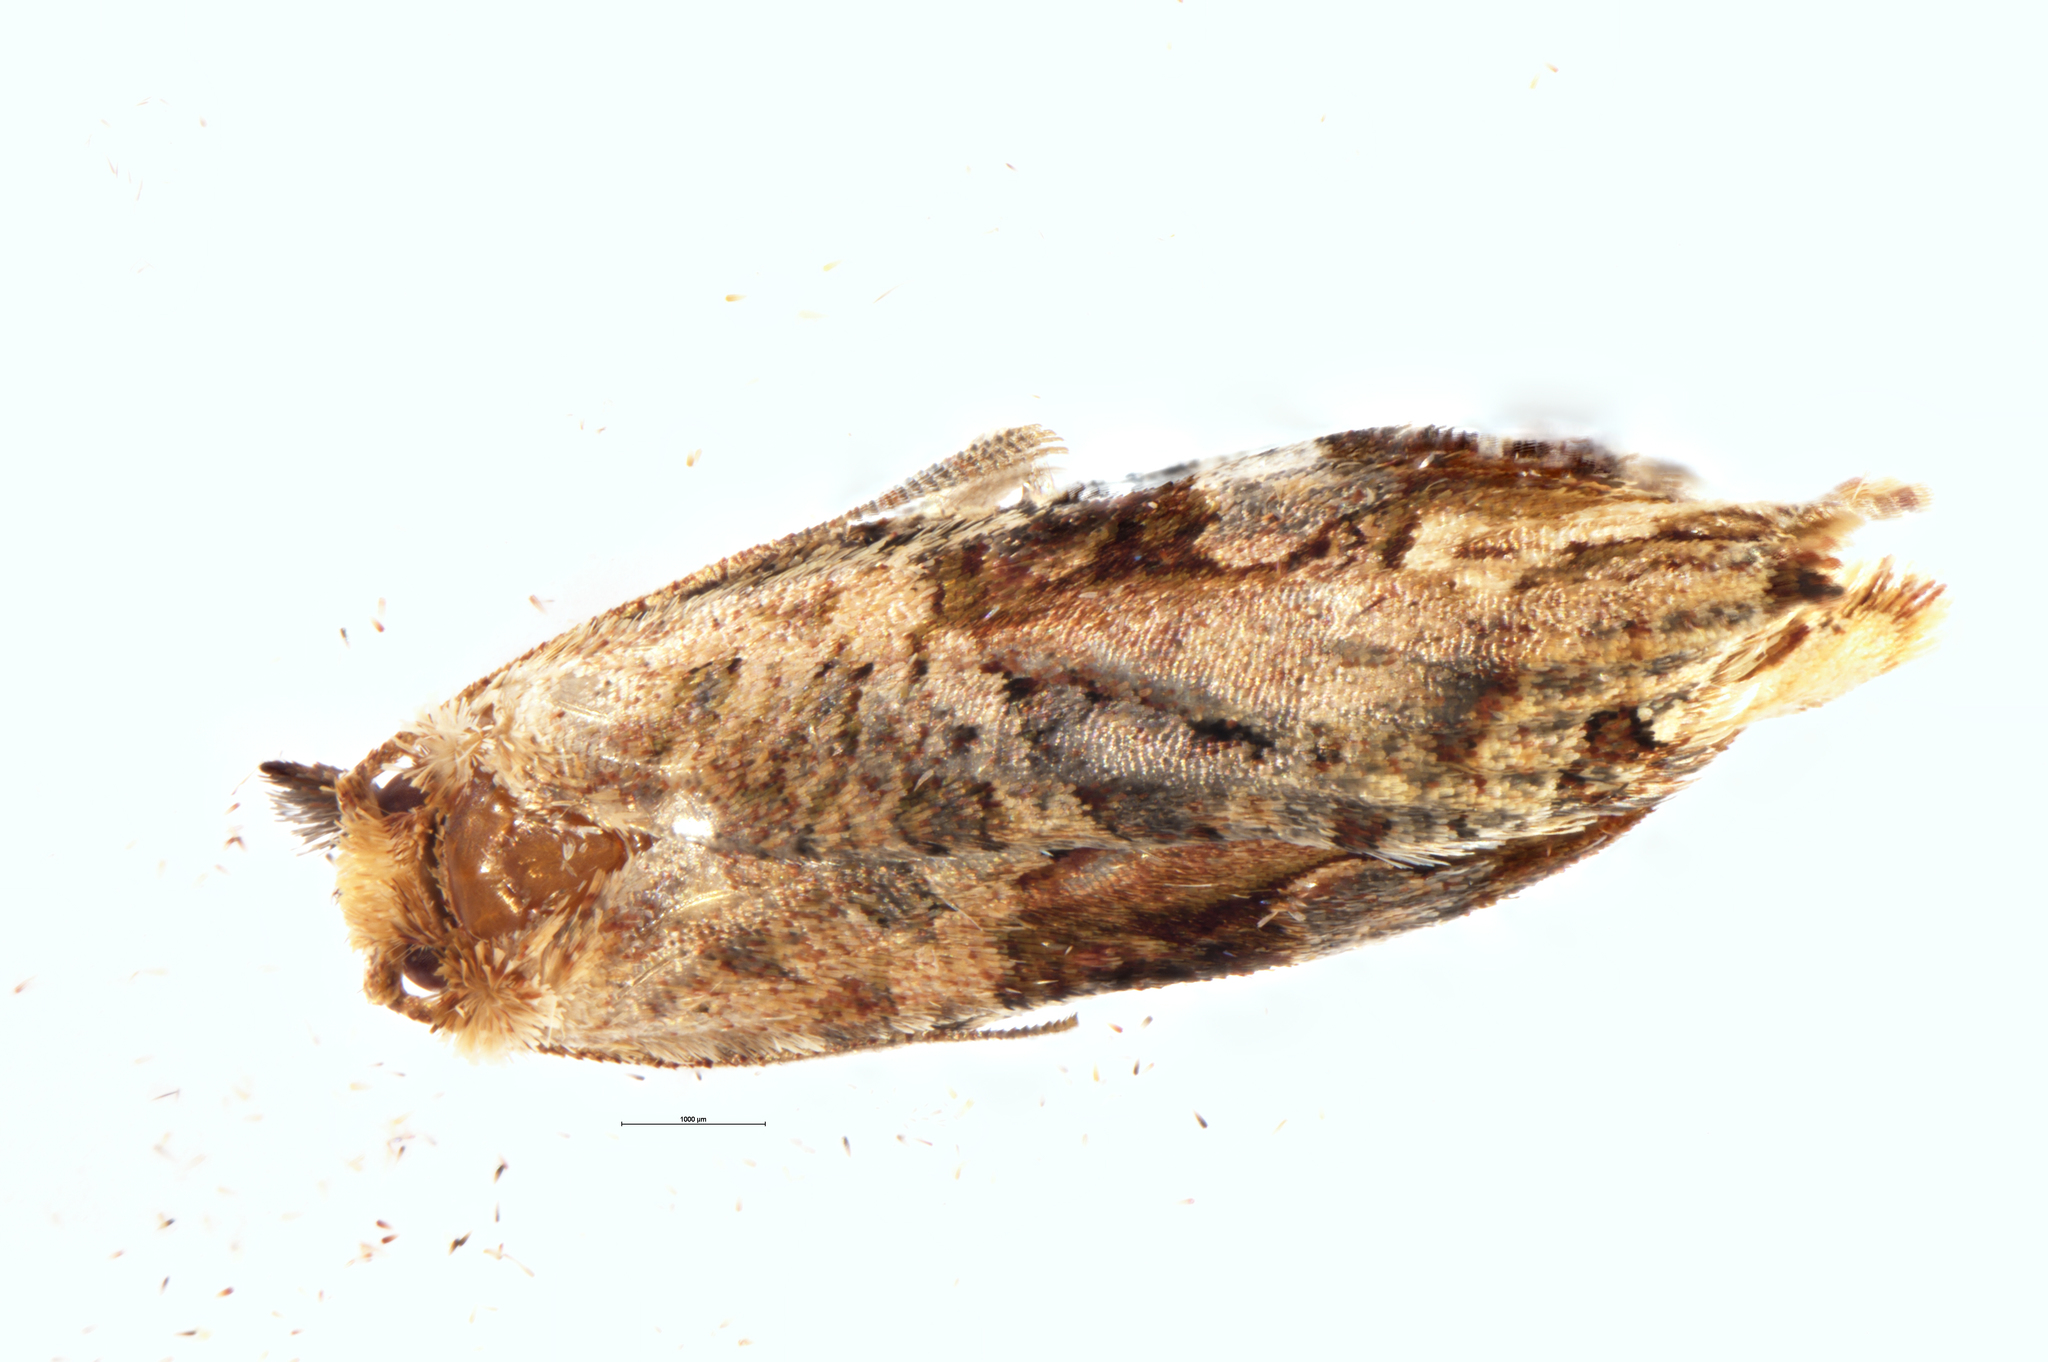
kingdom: Animalia
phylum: Arthropoda
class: Insecta
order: Lepidoptera
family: Tortricidae
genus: Epalxiphora
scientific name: Epalxiphora axenana
